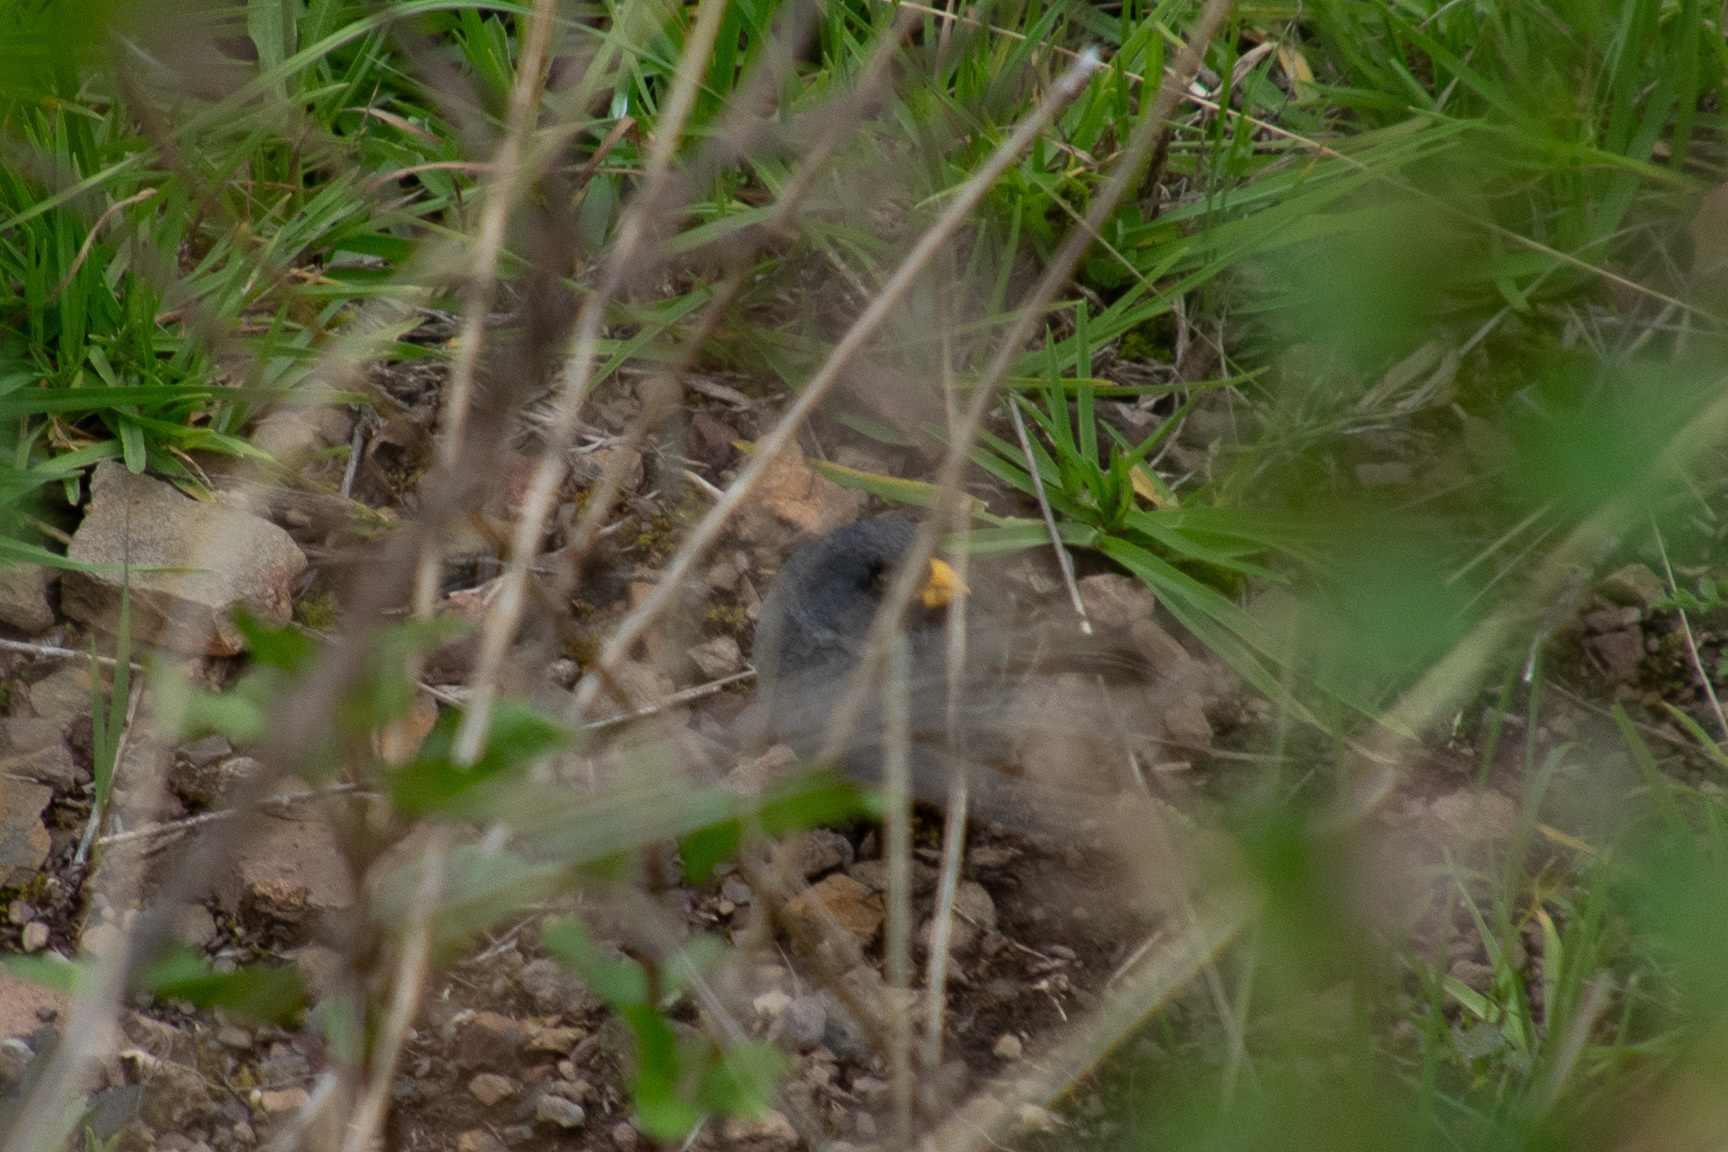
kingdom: Animalia
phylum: Chordata
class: Aves
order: Passeriformes
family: Thraupidae
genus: Catamenia
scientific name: Catamenia analis
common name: Band-tailed seedeater
